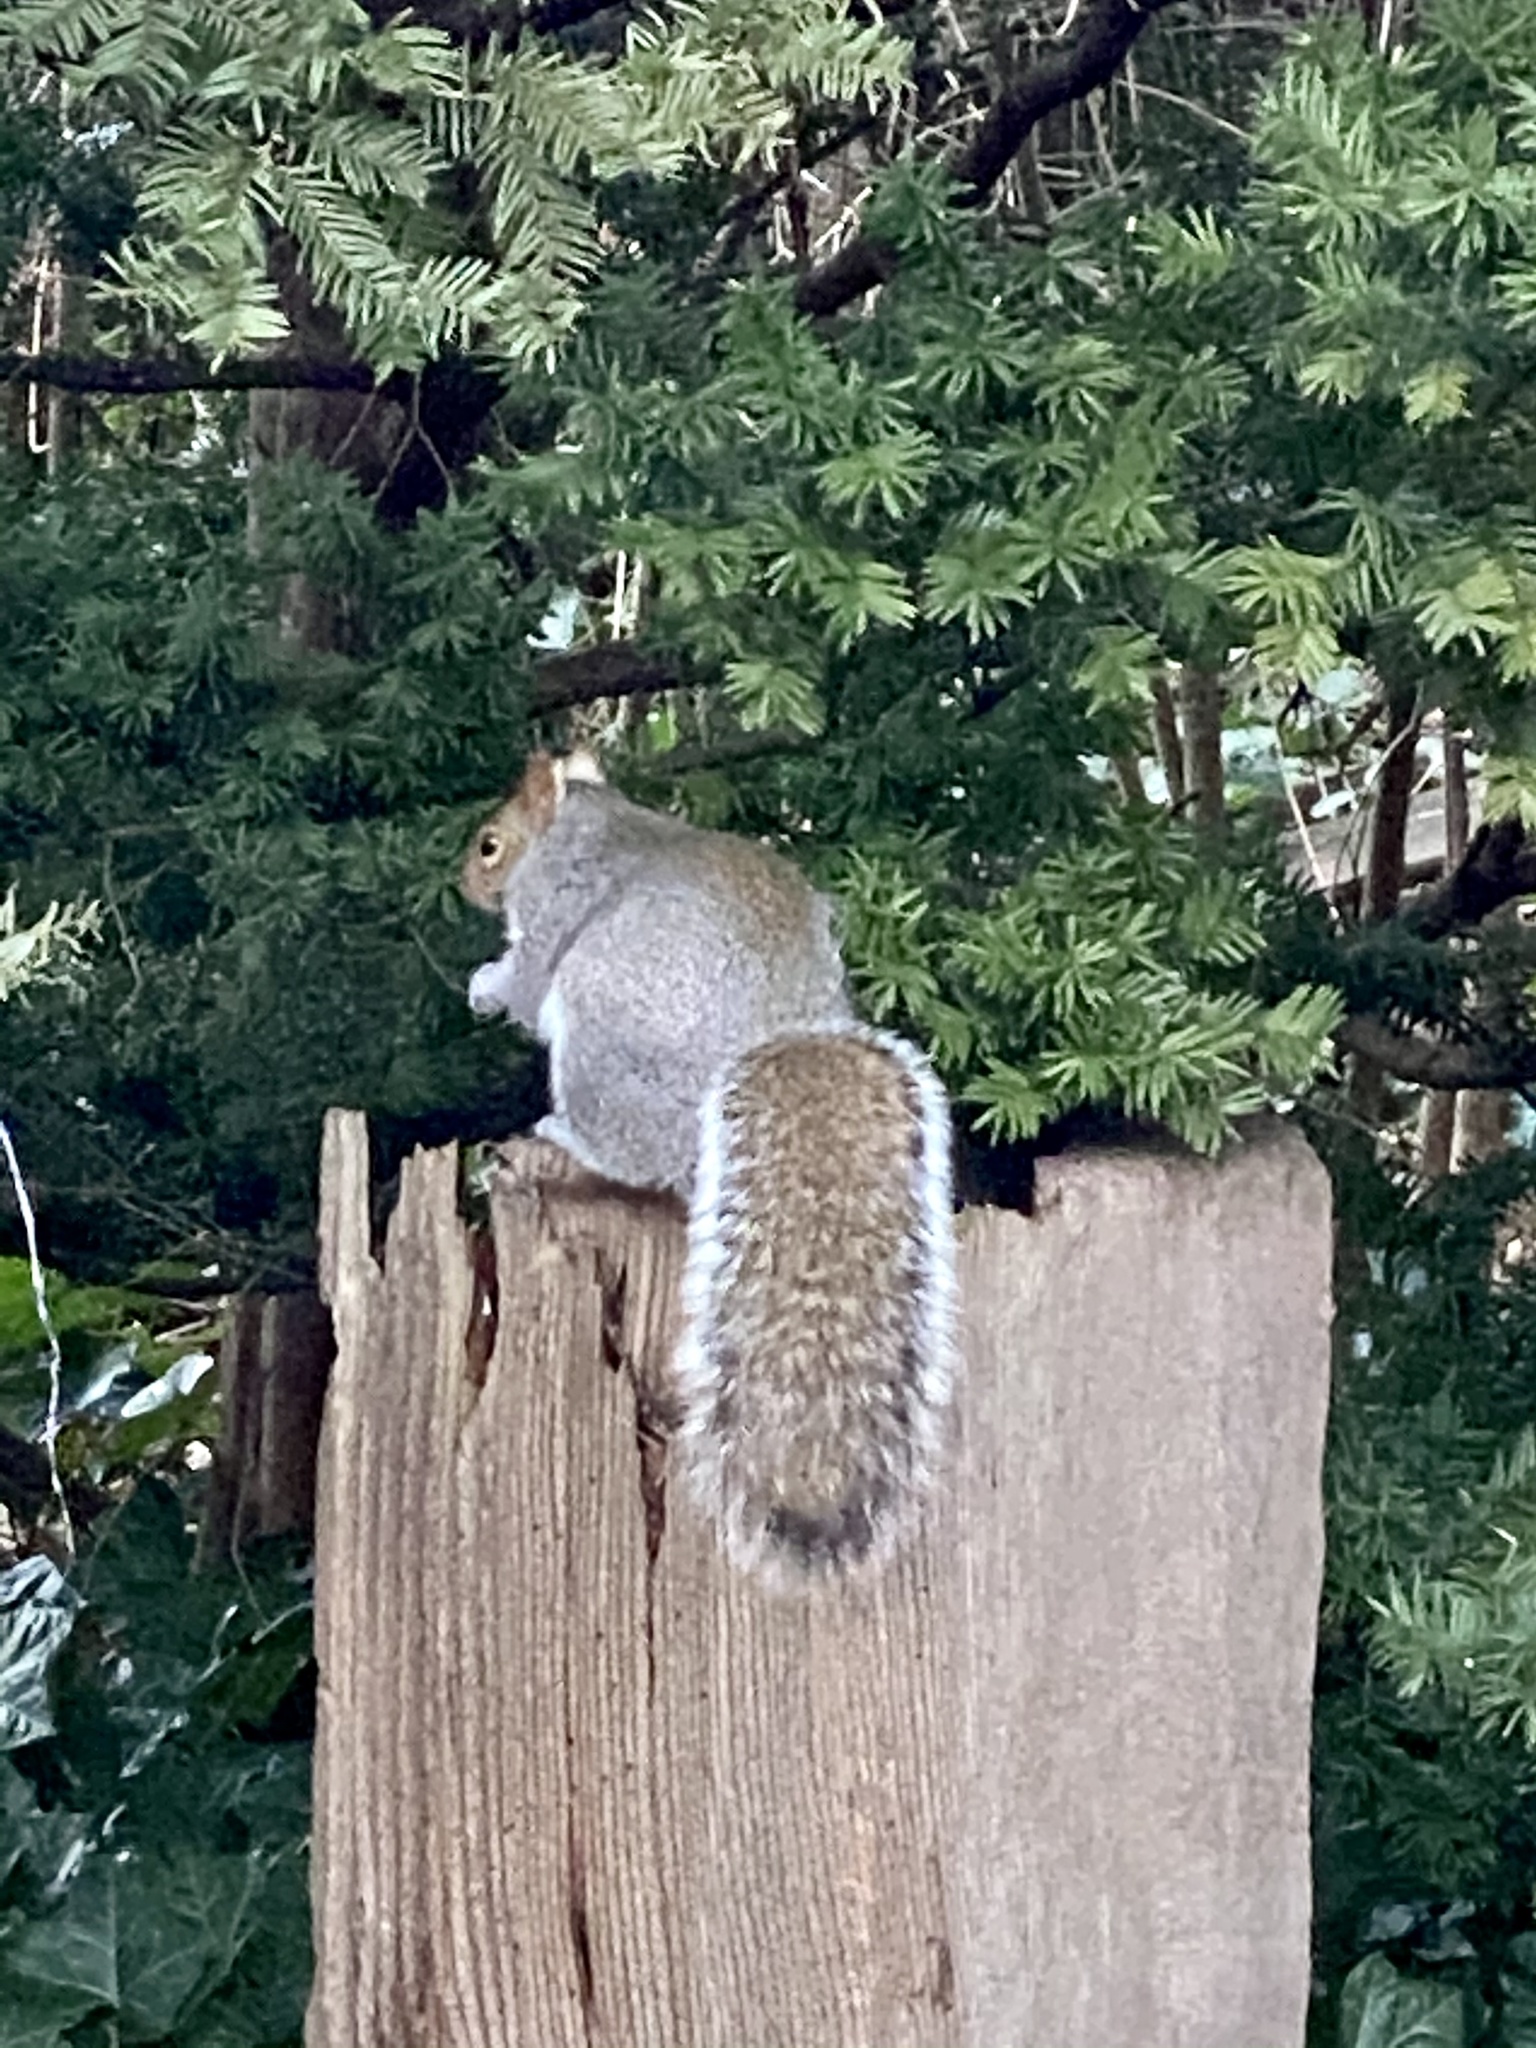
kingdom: Animalia
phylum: Chordata
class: Mammalia
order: Rodentia
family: Sciuridae
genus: Sciurus
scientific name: Sciurus carolinensis
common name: Eastern gray squirrel
